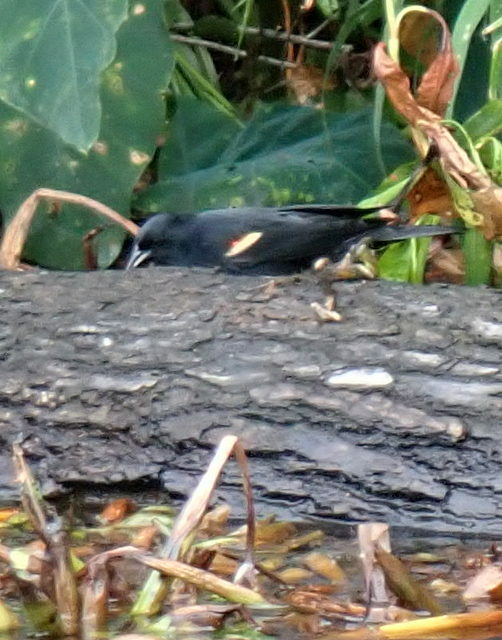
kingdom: Animalia
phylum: Chordata
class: Aves
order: Passeriformes
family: Icteridae
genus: Agelaius
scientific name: Agelaius phoeniceus
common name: Red-winged blackbird
